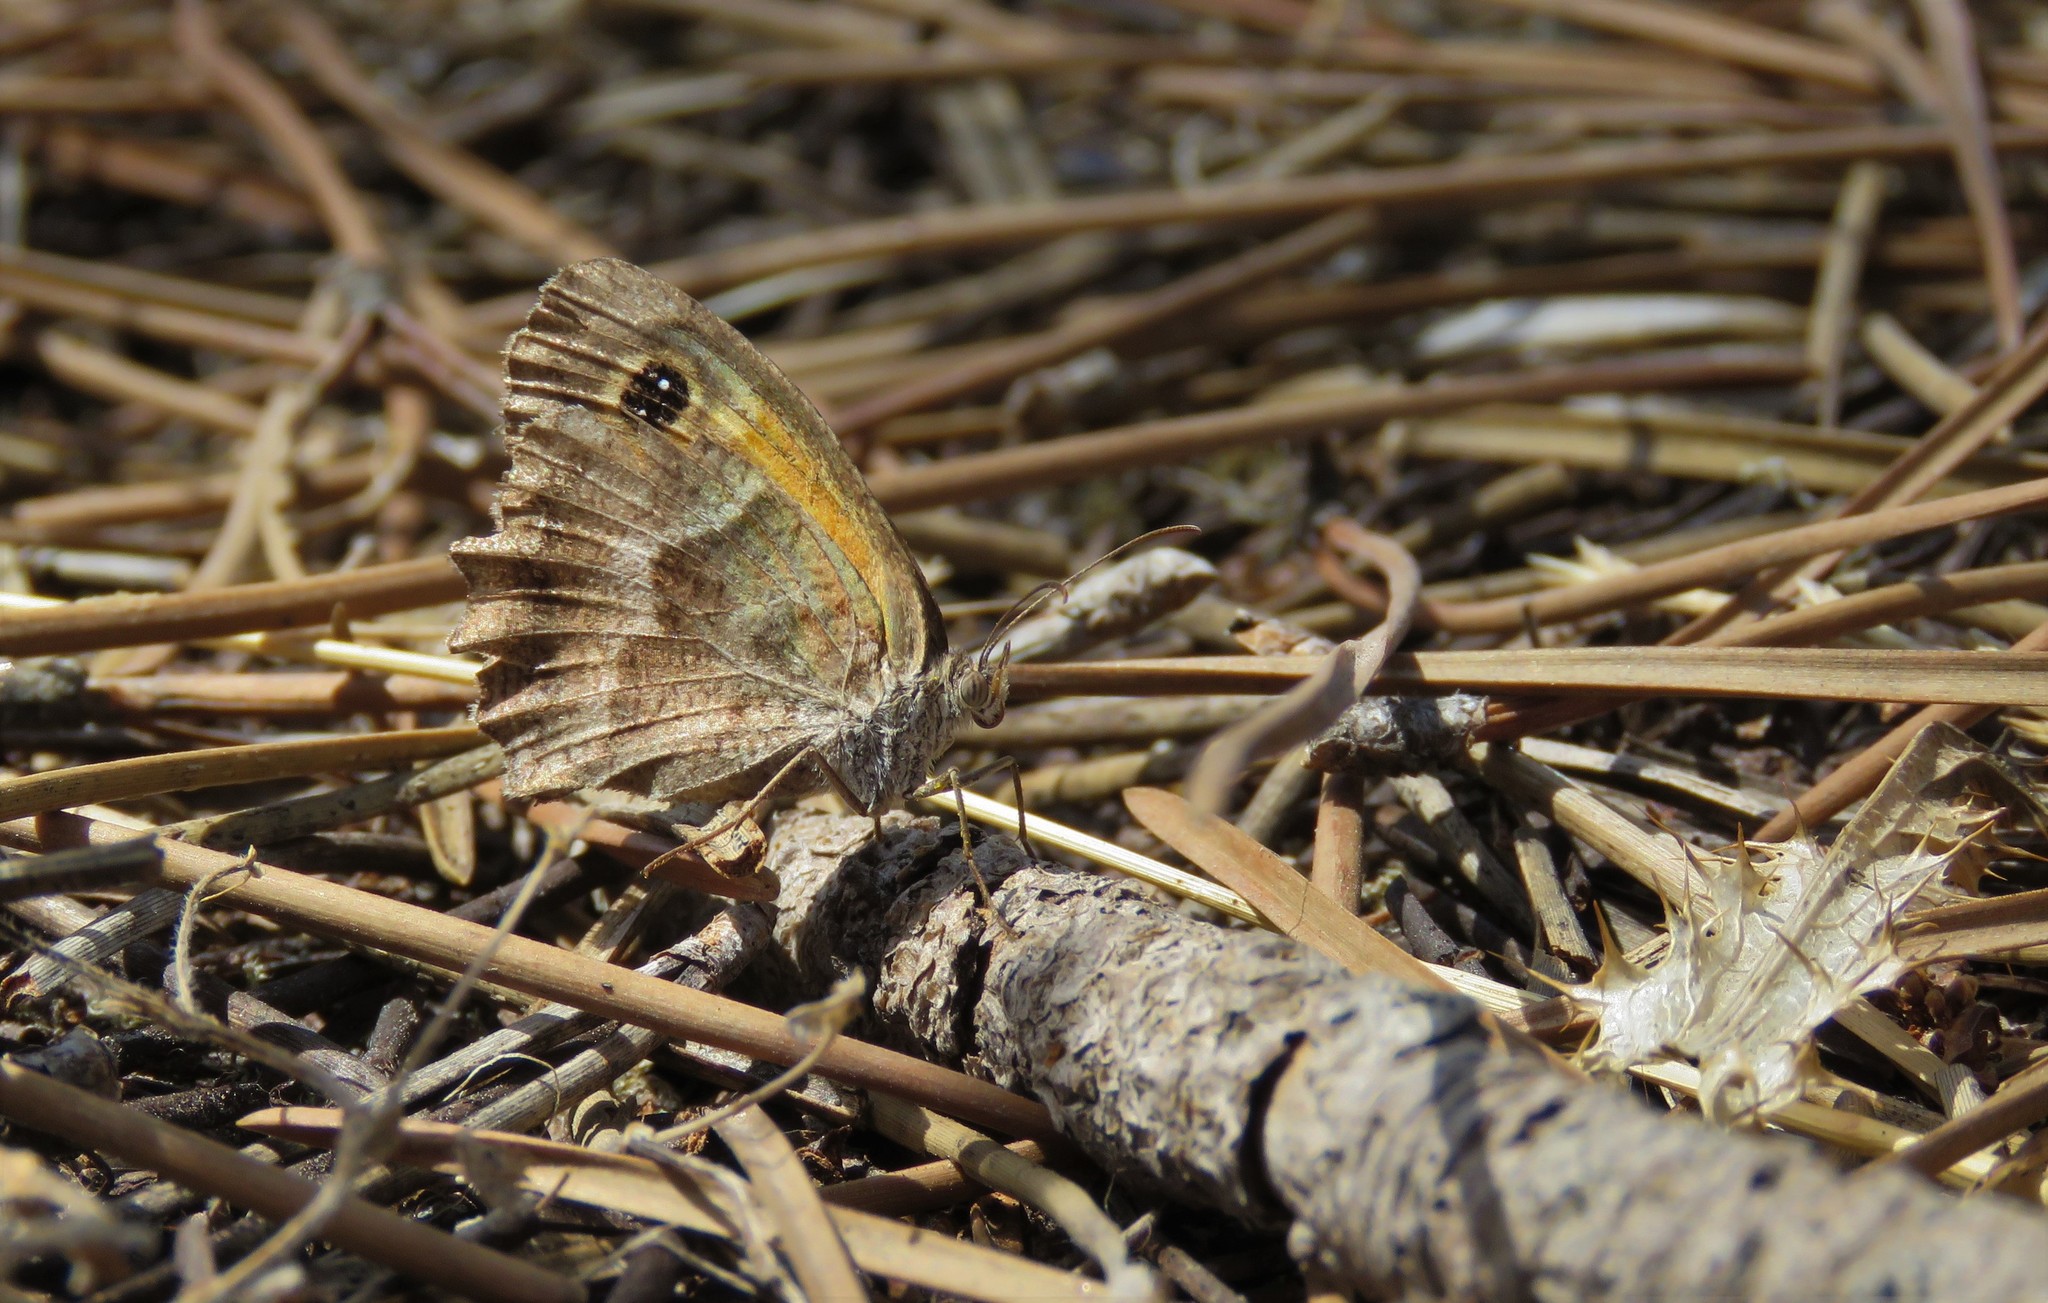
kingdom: Animalia
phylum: Arthropoda
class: Insecta
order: Lepidoptera
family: Nymphalidae
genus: Pyronia
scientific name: Pyronia cecilia
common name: Southern gatekeeper
